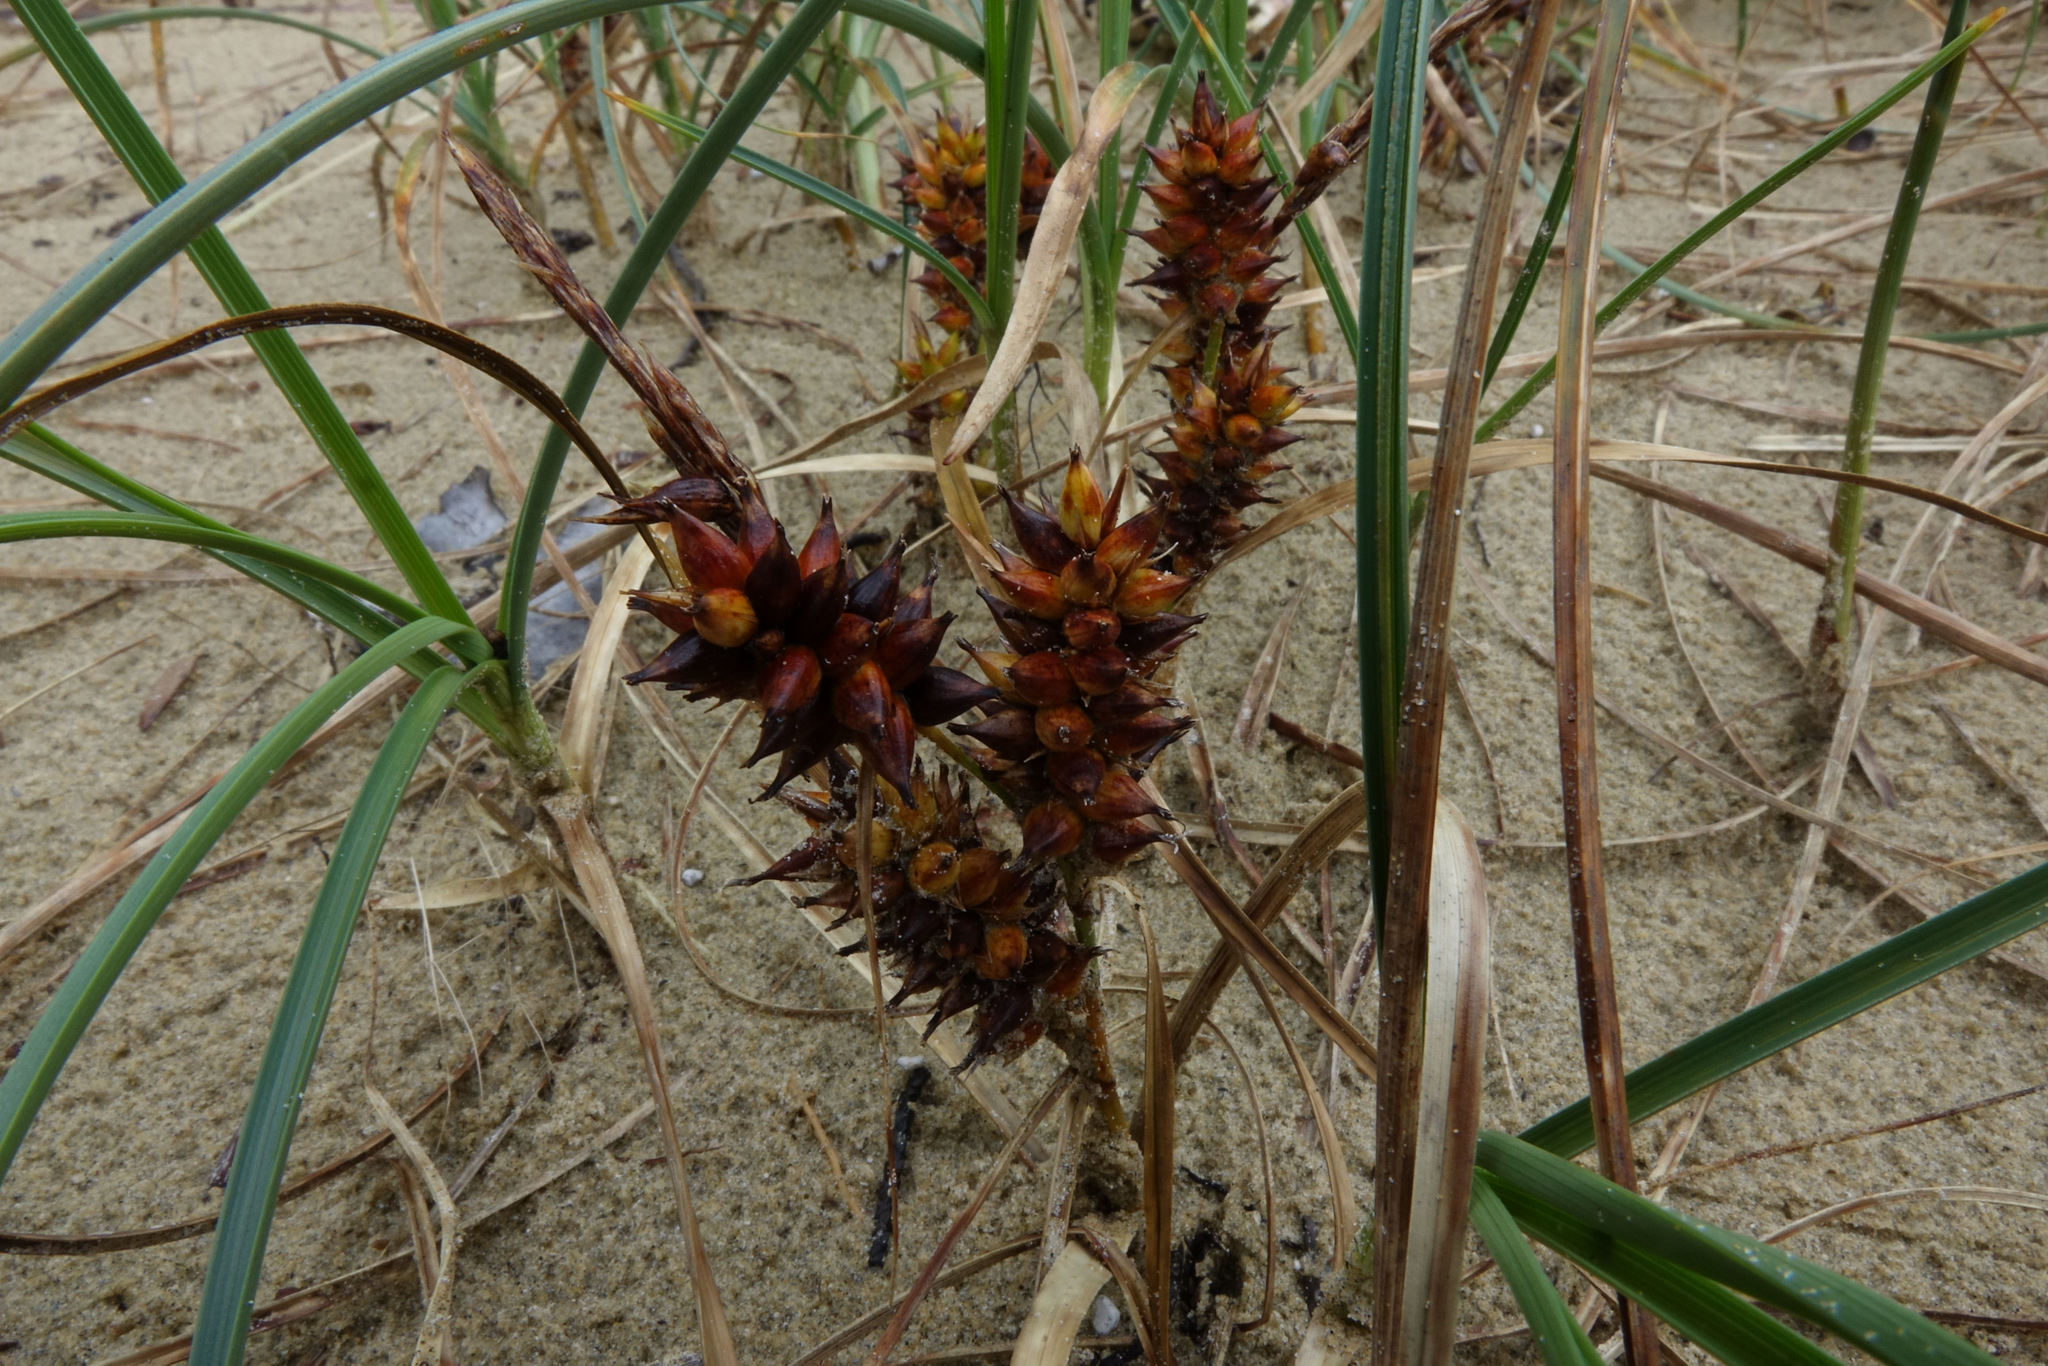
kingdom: Plantae
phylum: Tracheophyta
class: Liliopsida
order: Poales
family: Cyperaceae
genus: Carex
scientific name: Carex pumila
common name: Dwarf sedge
